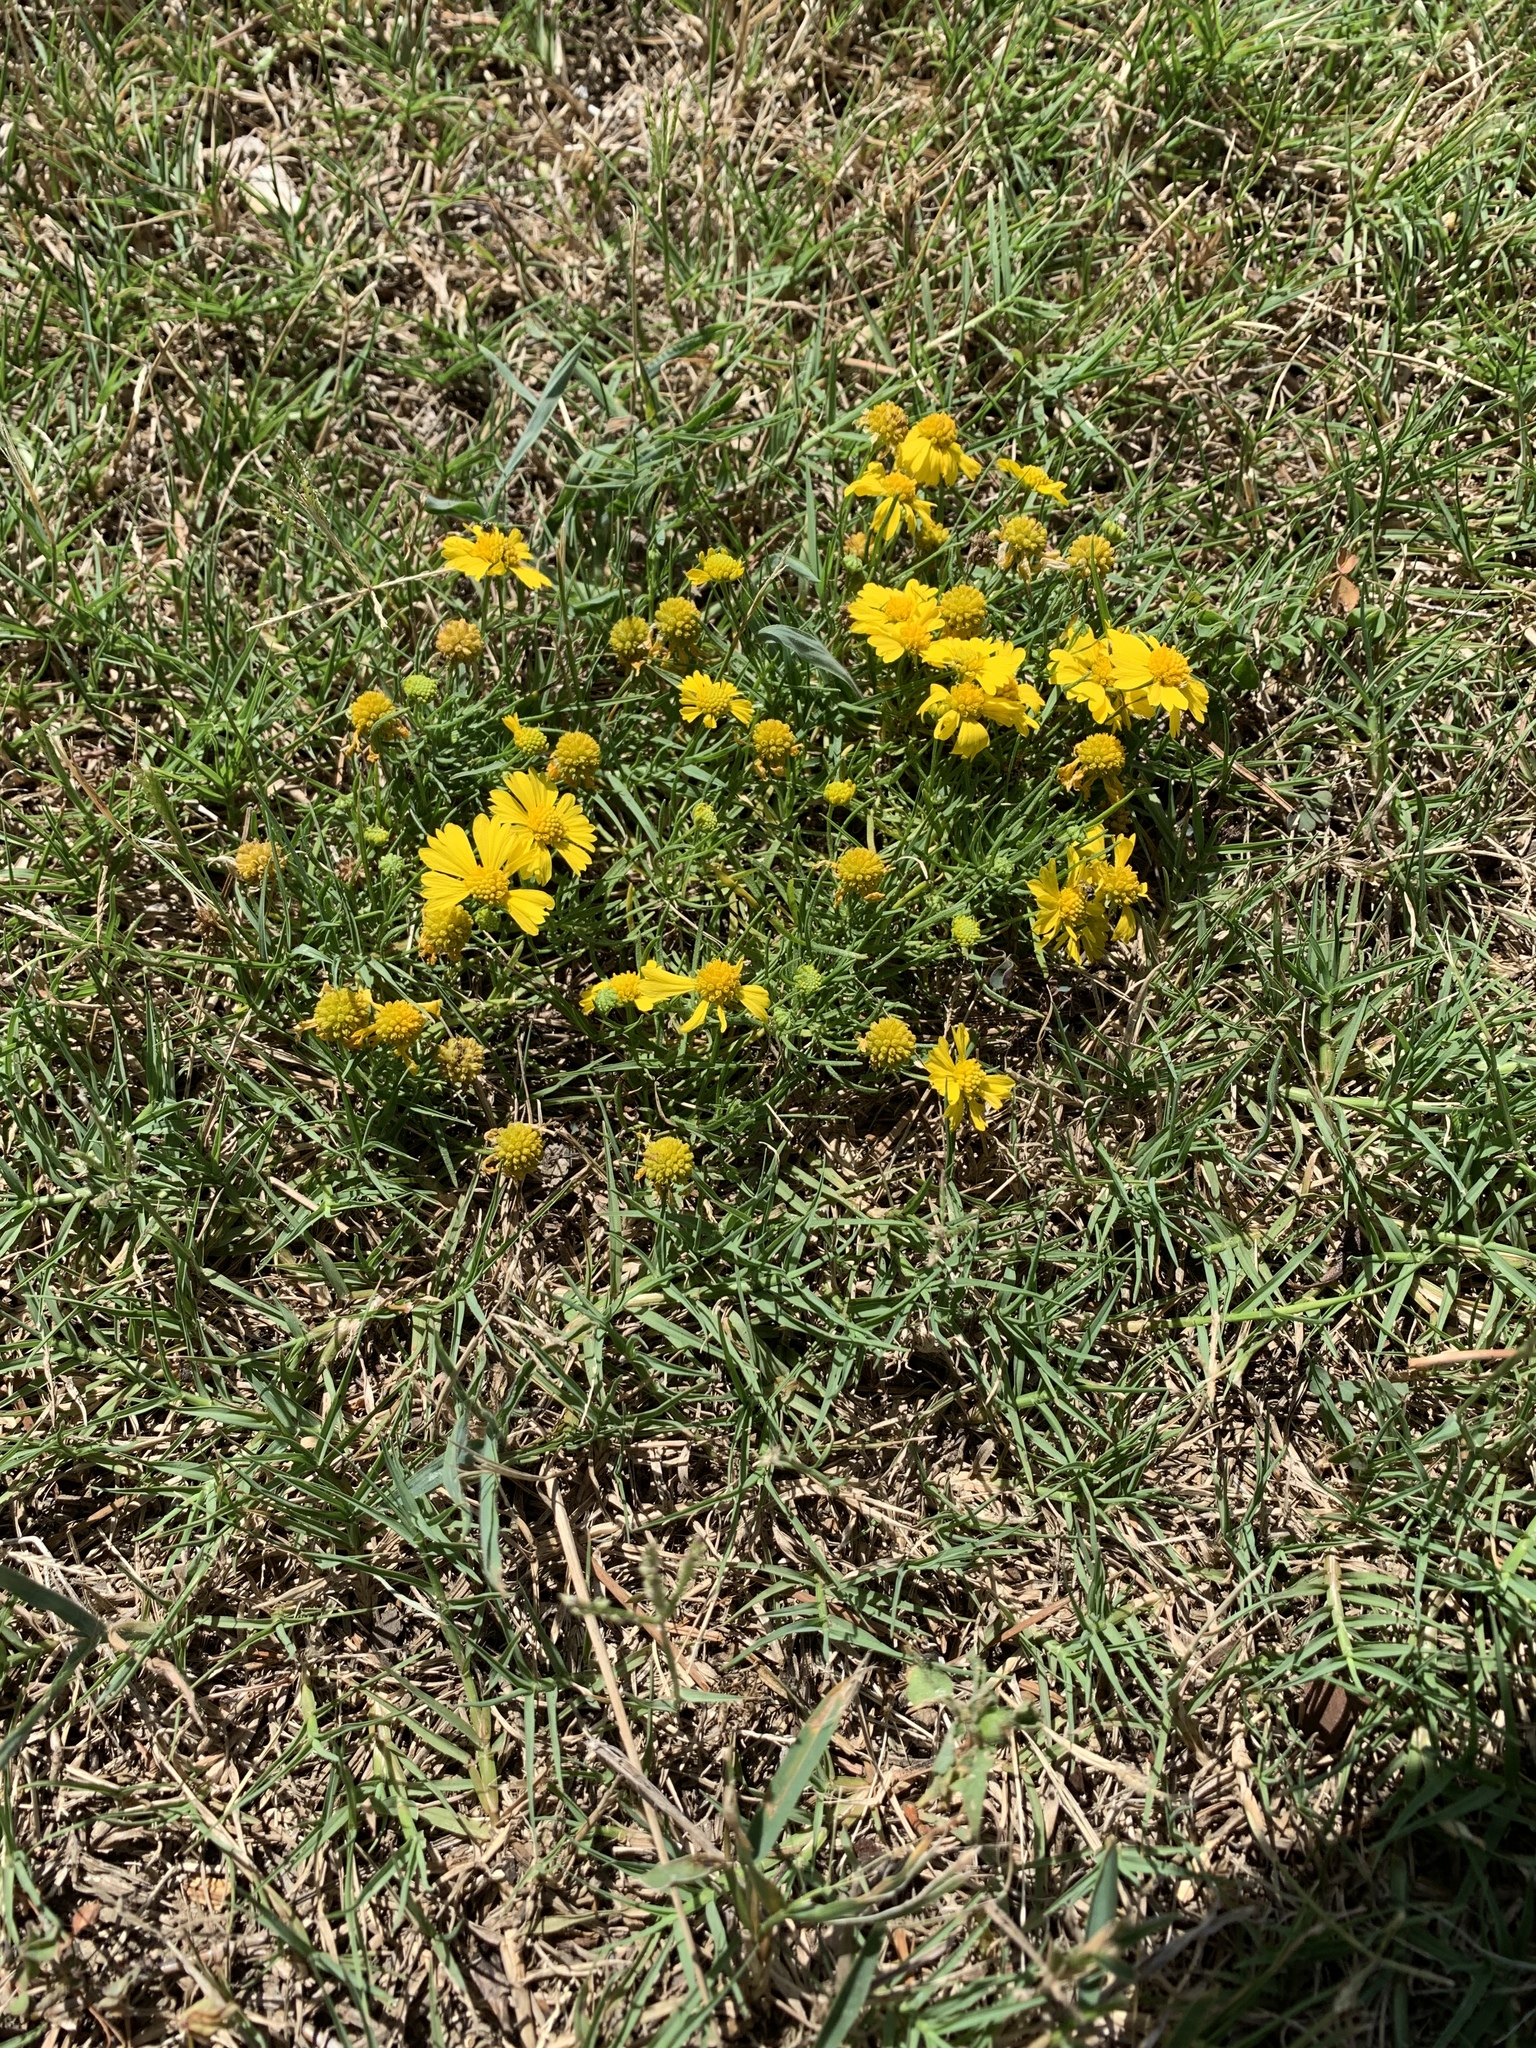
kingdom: Plantae
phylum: Tracheophyta
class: Magnoliopsida
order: Asterales
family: Asteraceae
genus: Helenium
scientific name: Helenium amarum
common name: Bitter sneezeweed
